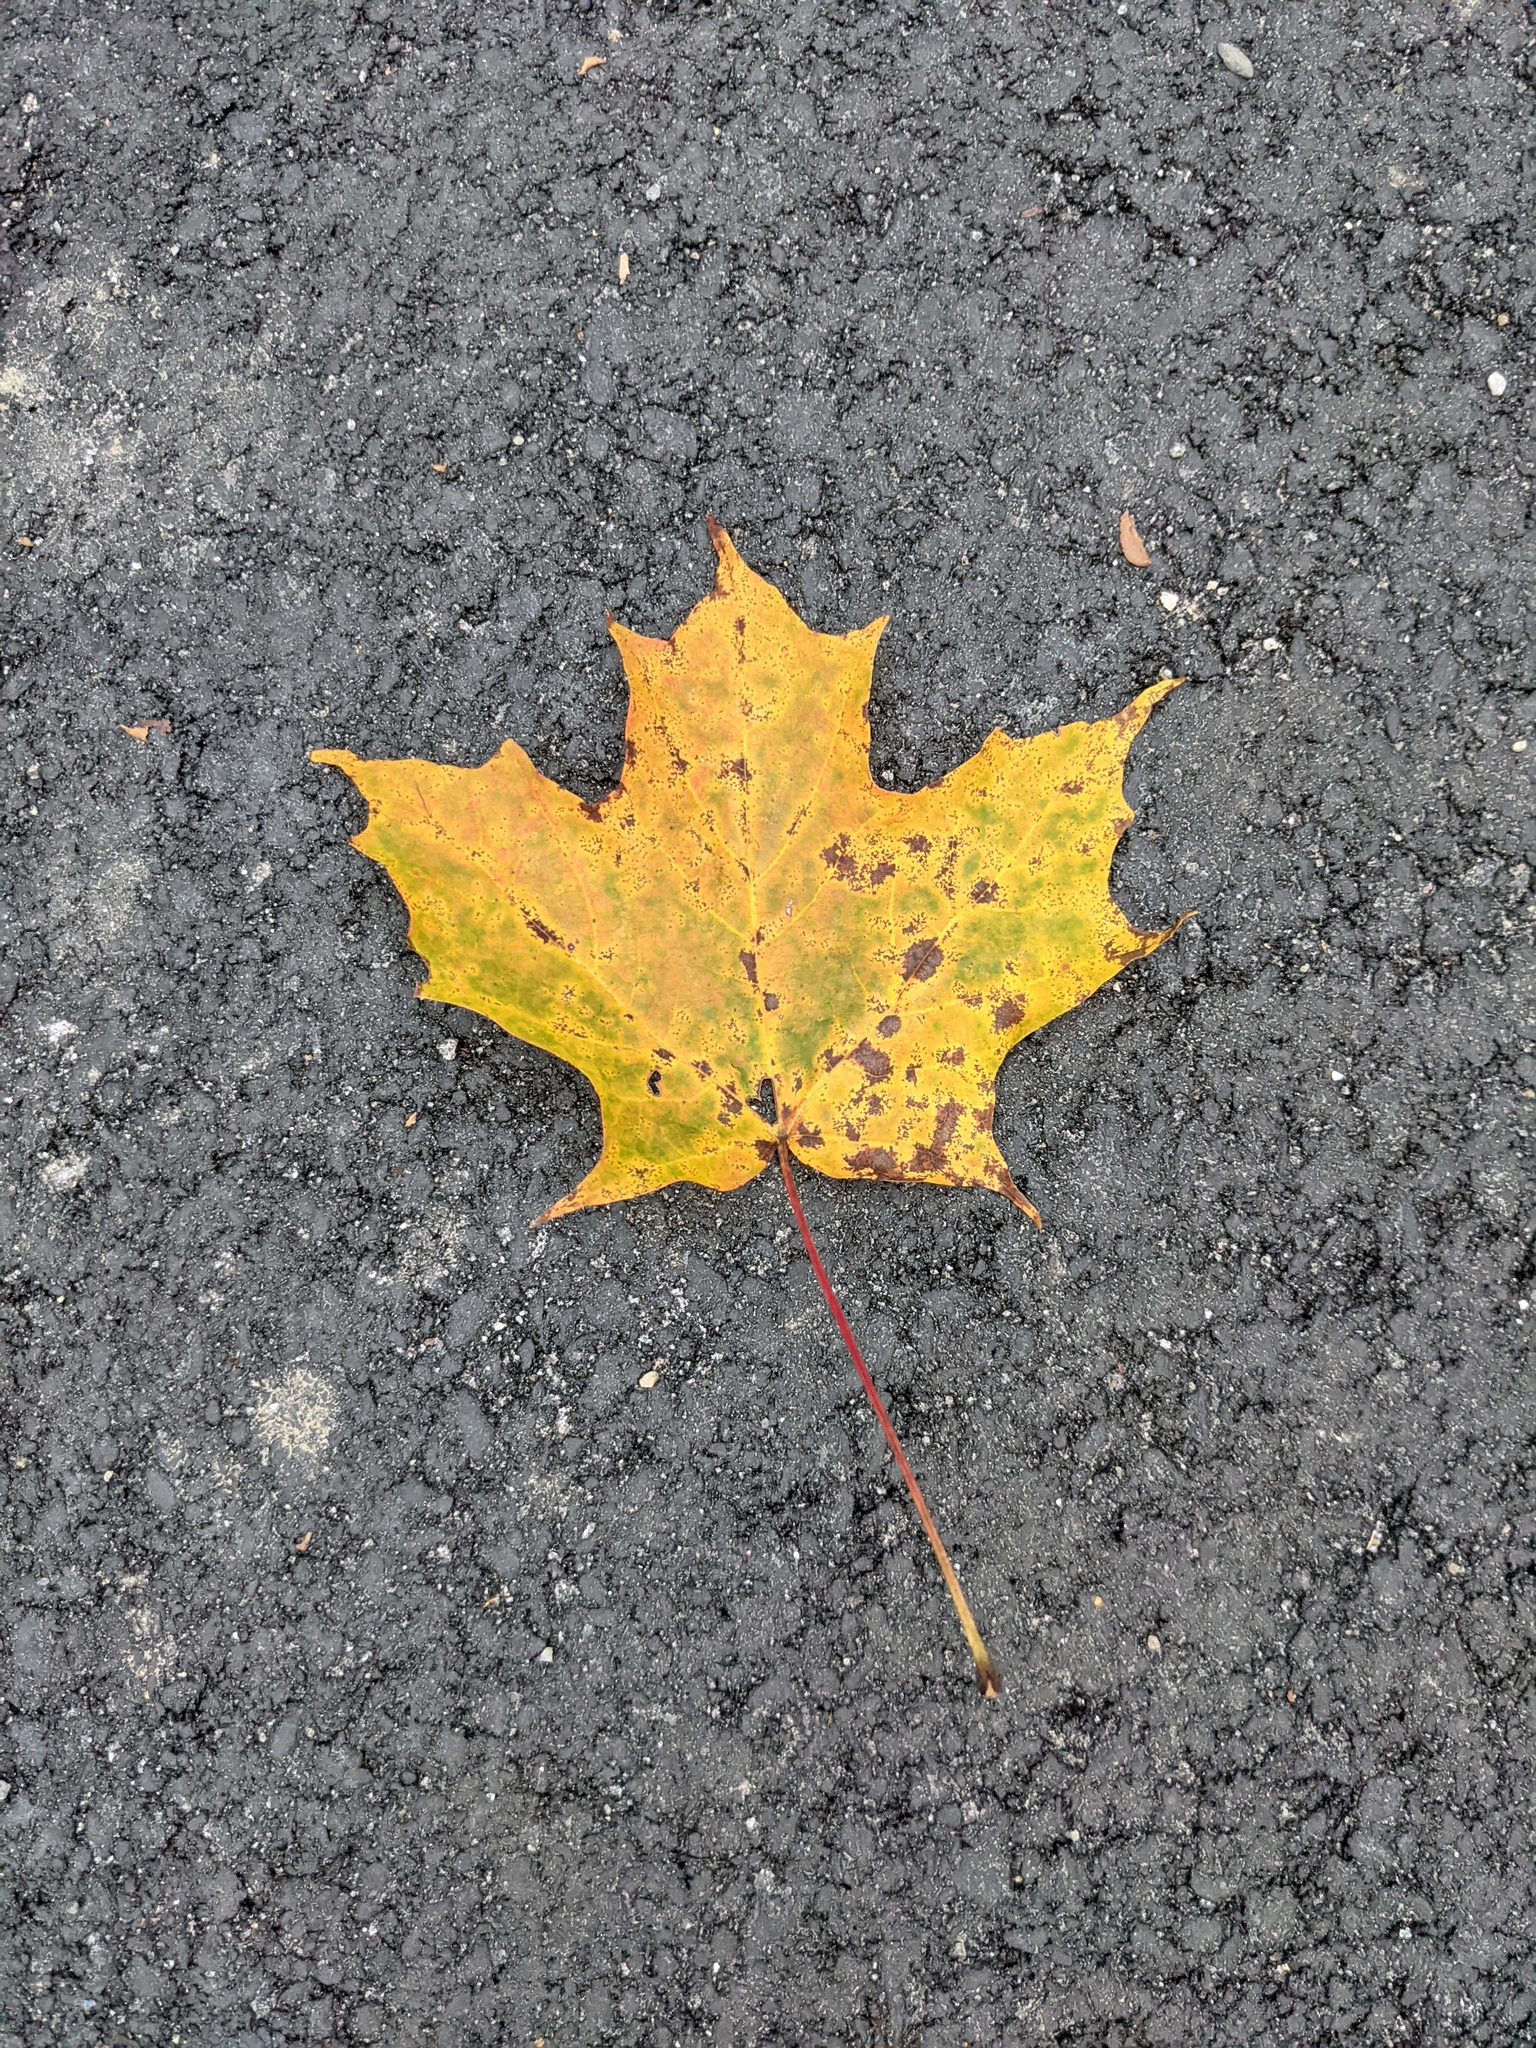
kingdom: Plantae
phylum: Tracheophyta
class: Magnoliopsida
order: Sapindales
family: Sapindaceae
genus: Acer
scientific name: Acer saccharum
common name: Sugar maple
